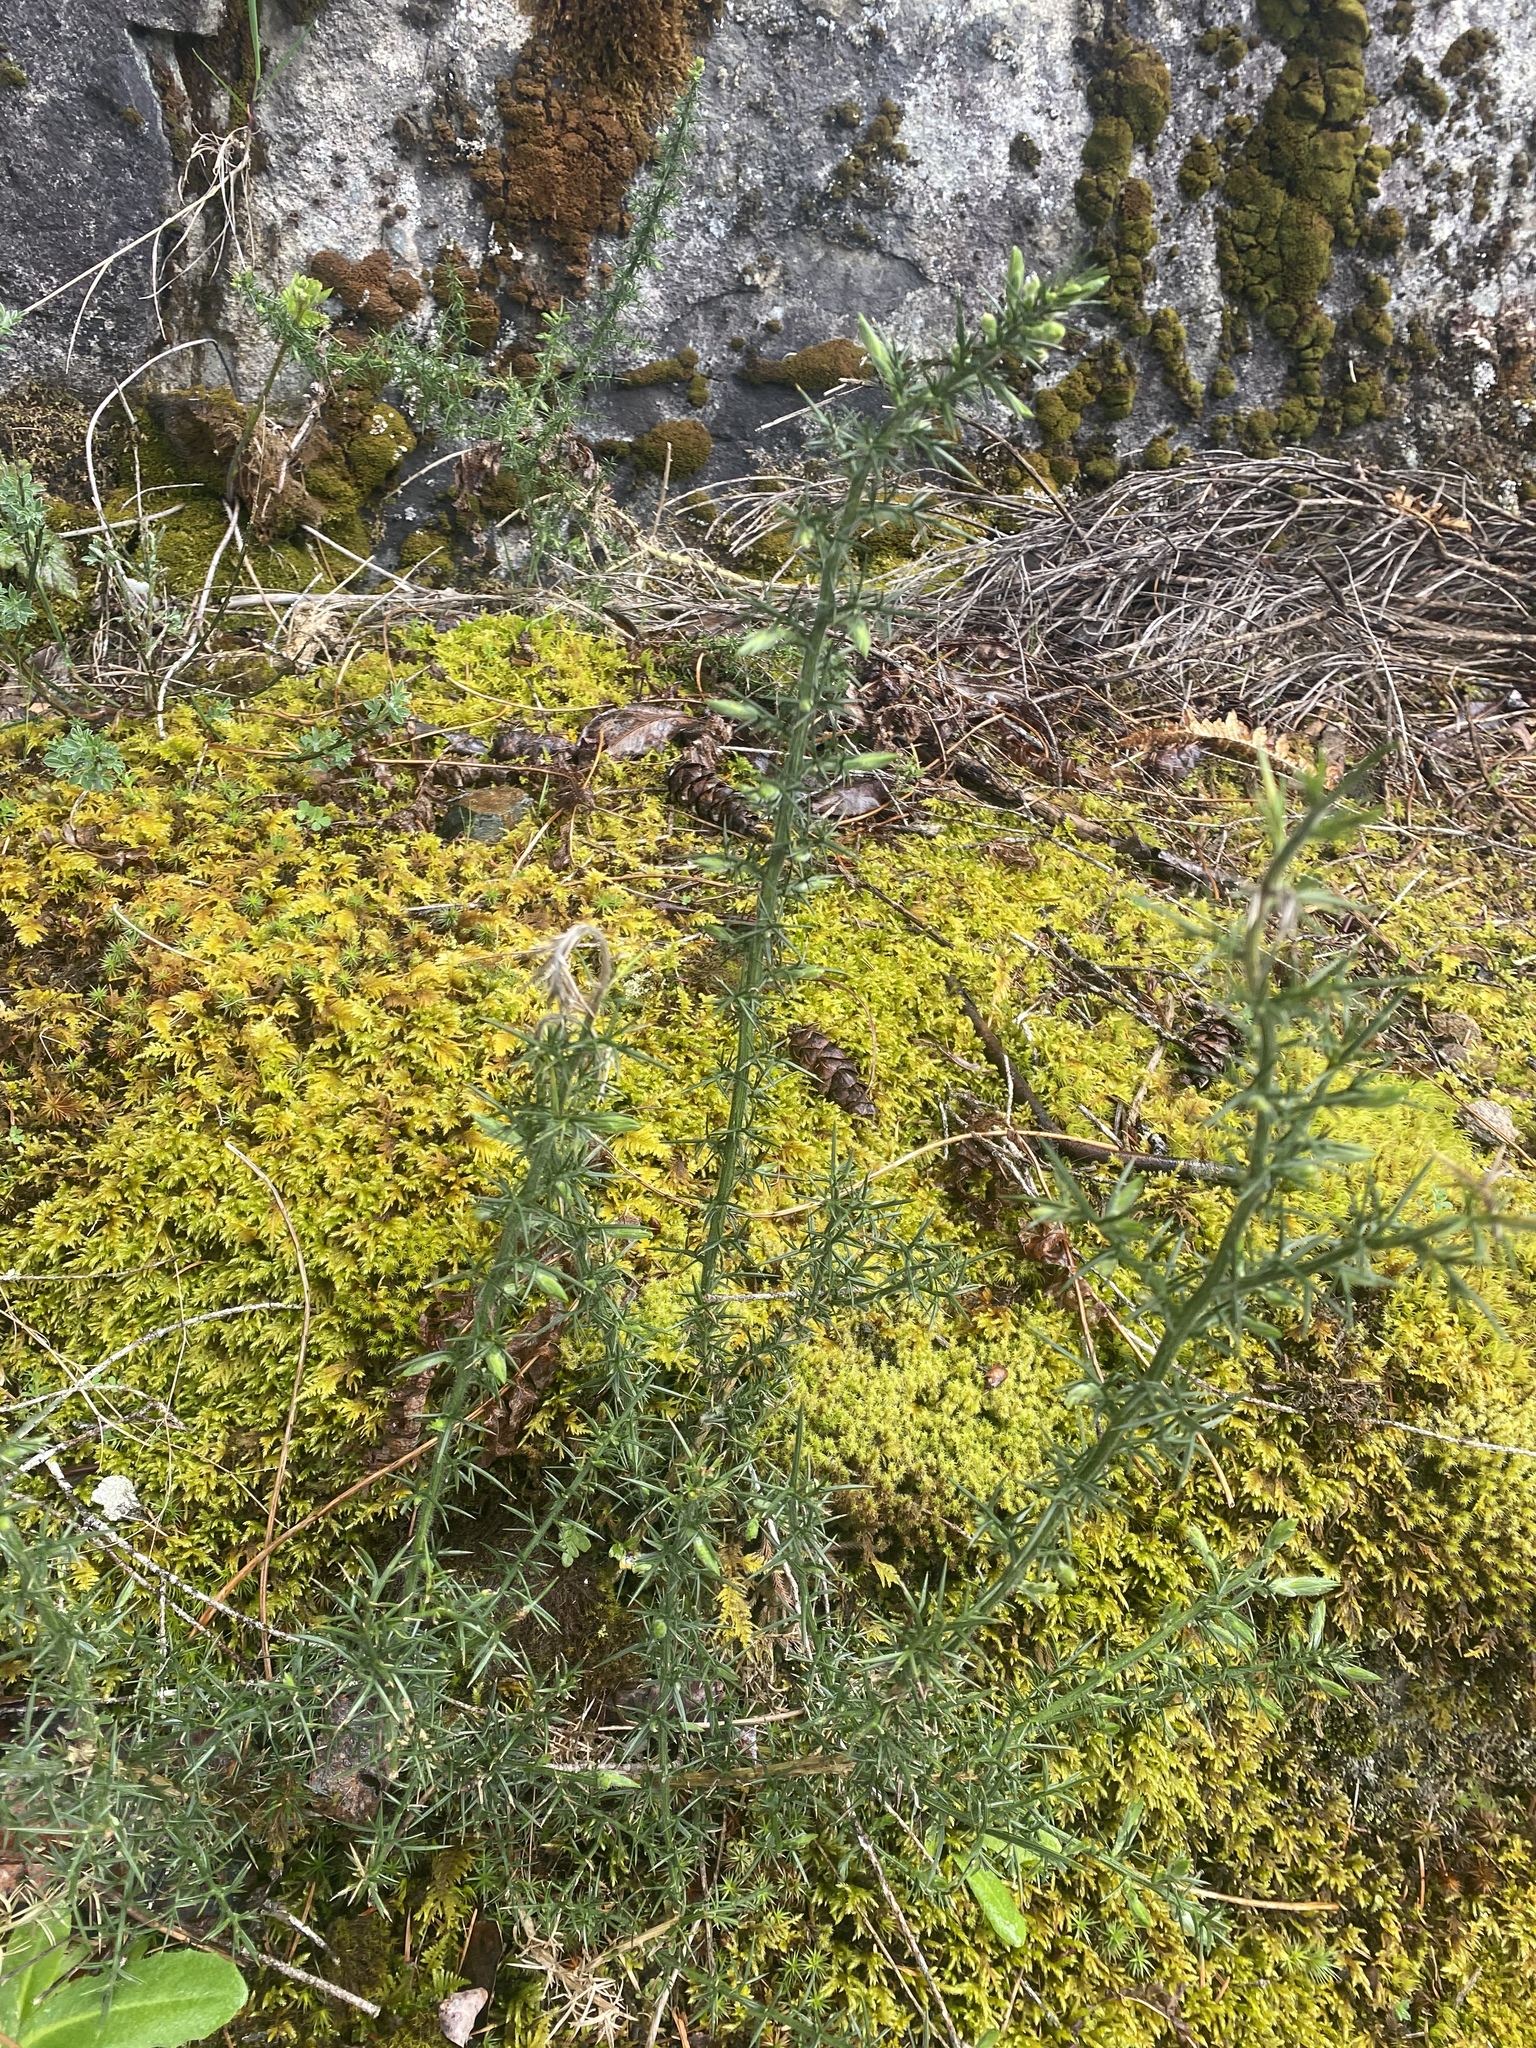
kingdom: Plantae
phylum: Tracheophyta
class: Magnoliopsida
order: Fabales
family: Fabaceae
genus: Ulex
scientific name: Ulex europaeus
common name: Common gorse
